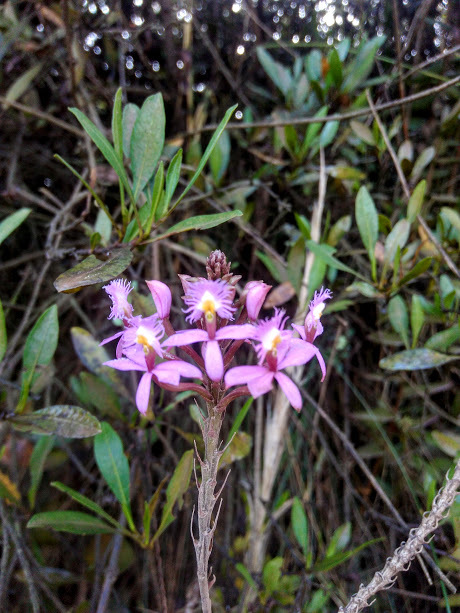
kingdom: Plantae
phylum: Tracheophyta
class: Liliopsida
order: Asparagales
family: Orchidaceae
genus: Epidendrum
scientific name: Epidendrum arachnoglossum
